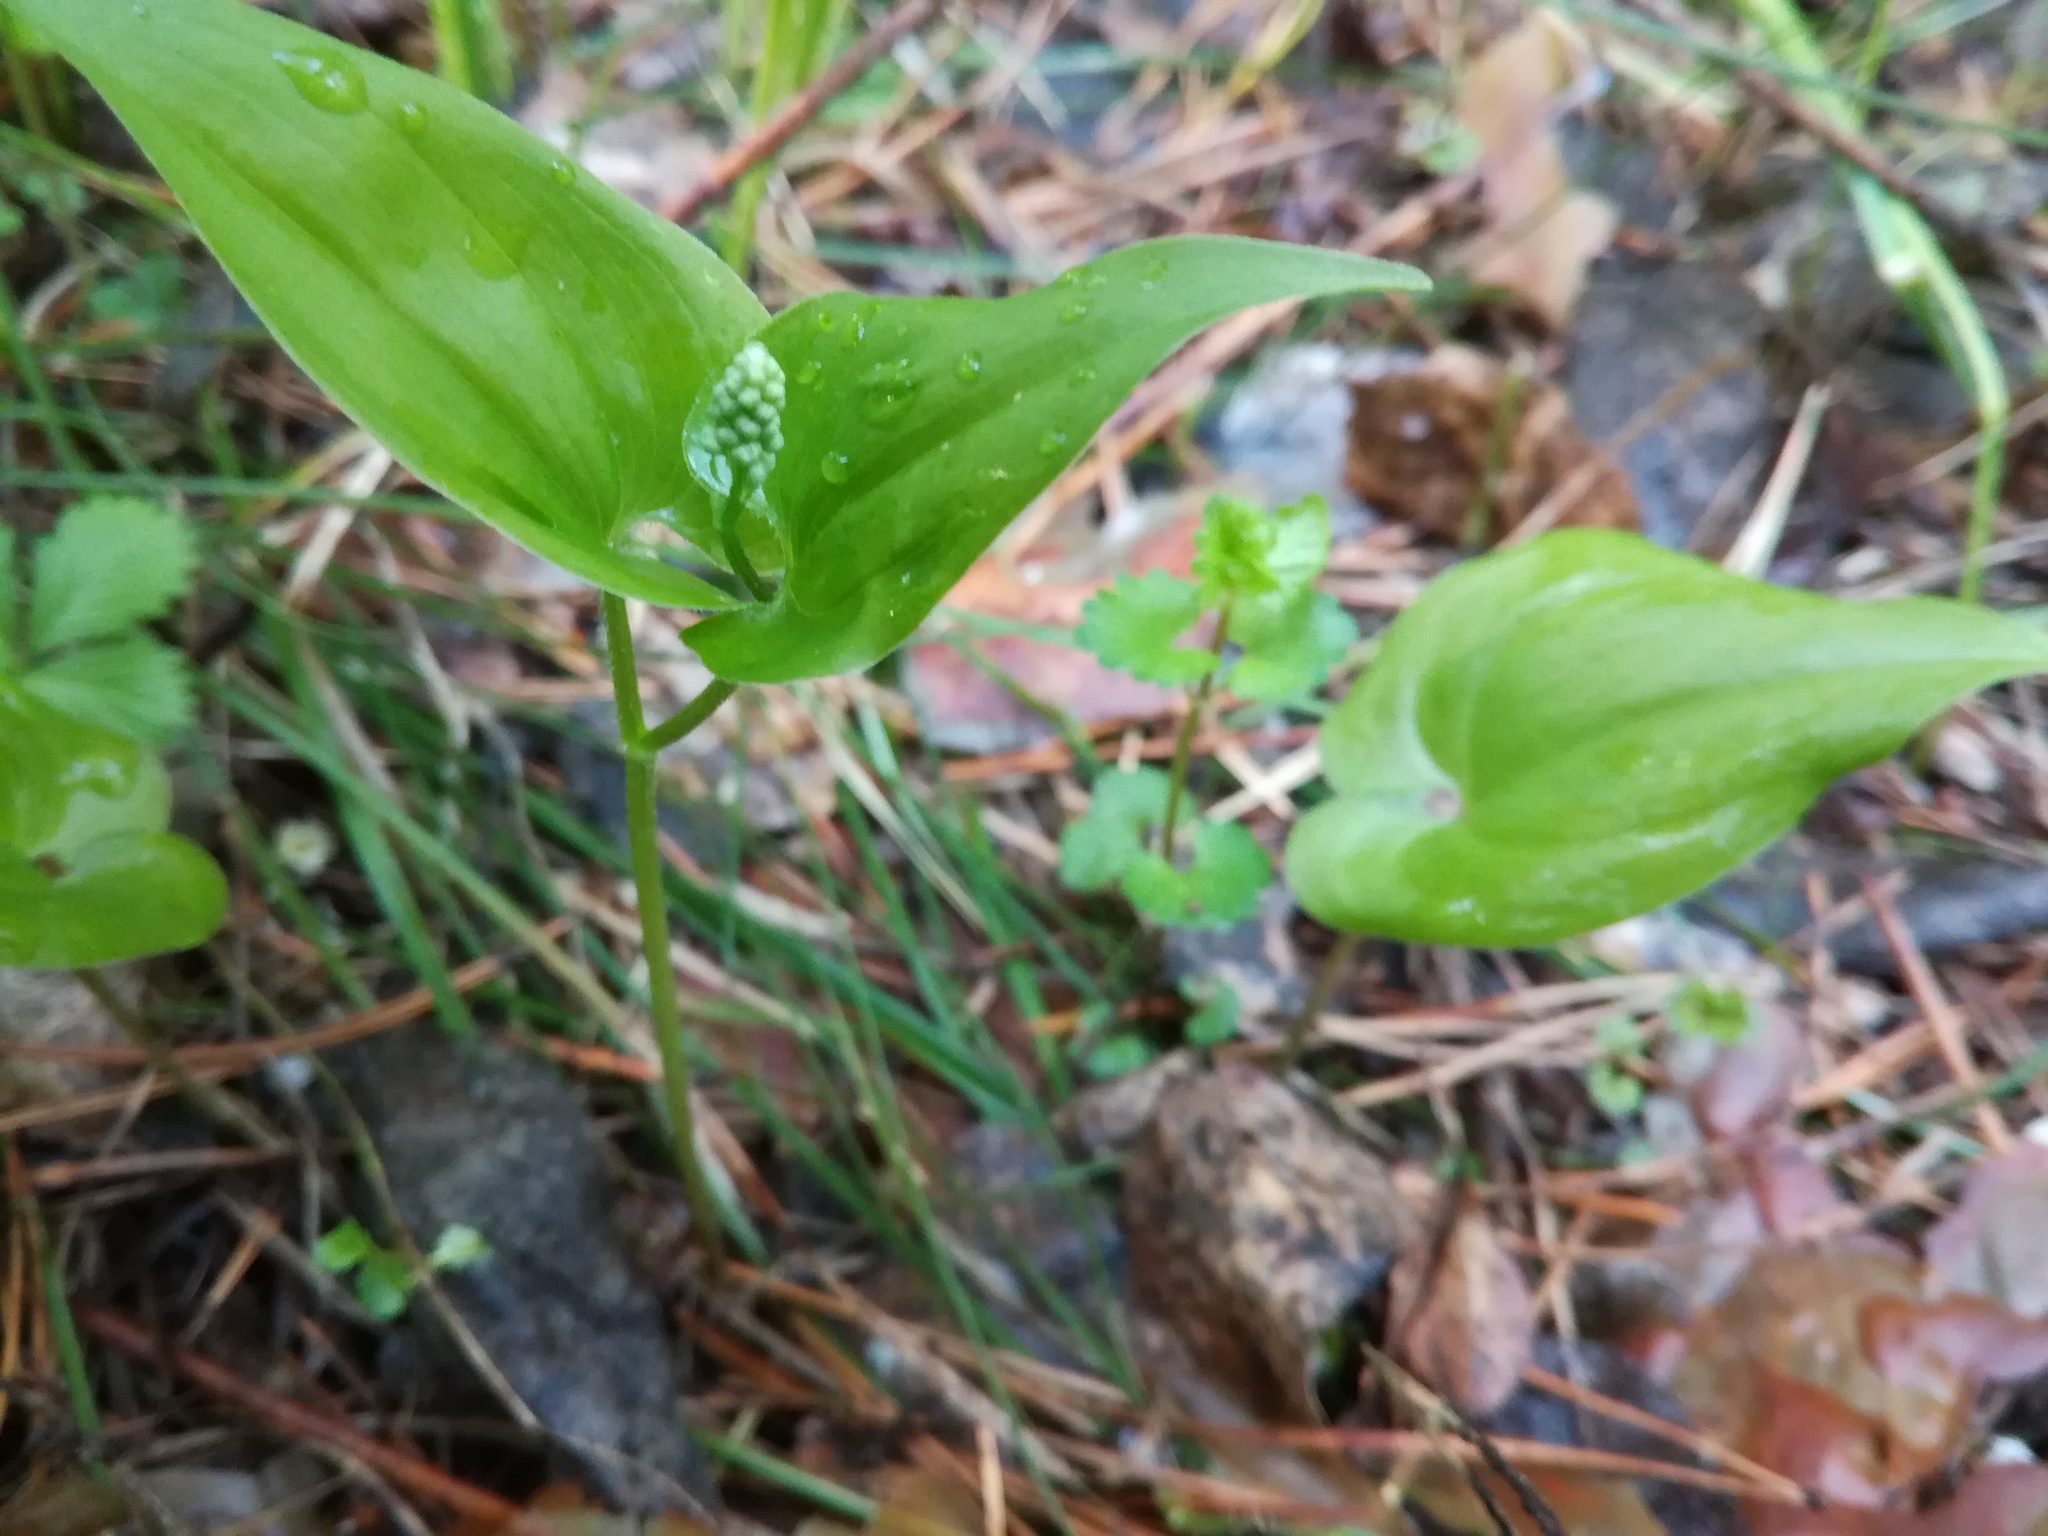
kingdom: Plantae
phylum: Tracheophyta
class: Liliopsida
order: Asparagales
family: Asparagaceae
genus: Maianthemum
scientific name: Maianthemum bifolium
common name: May lily
